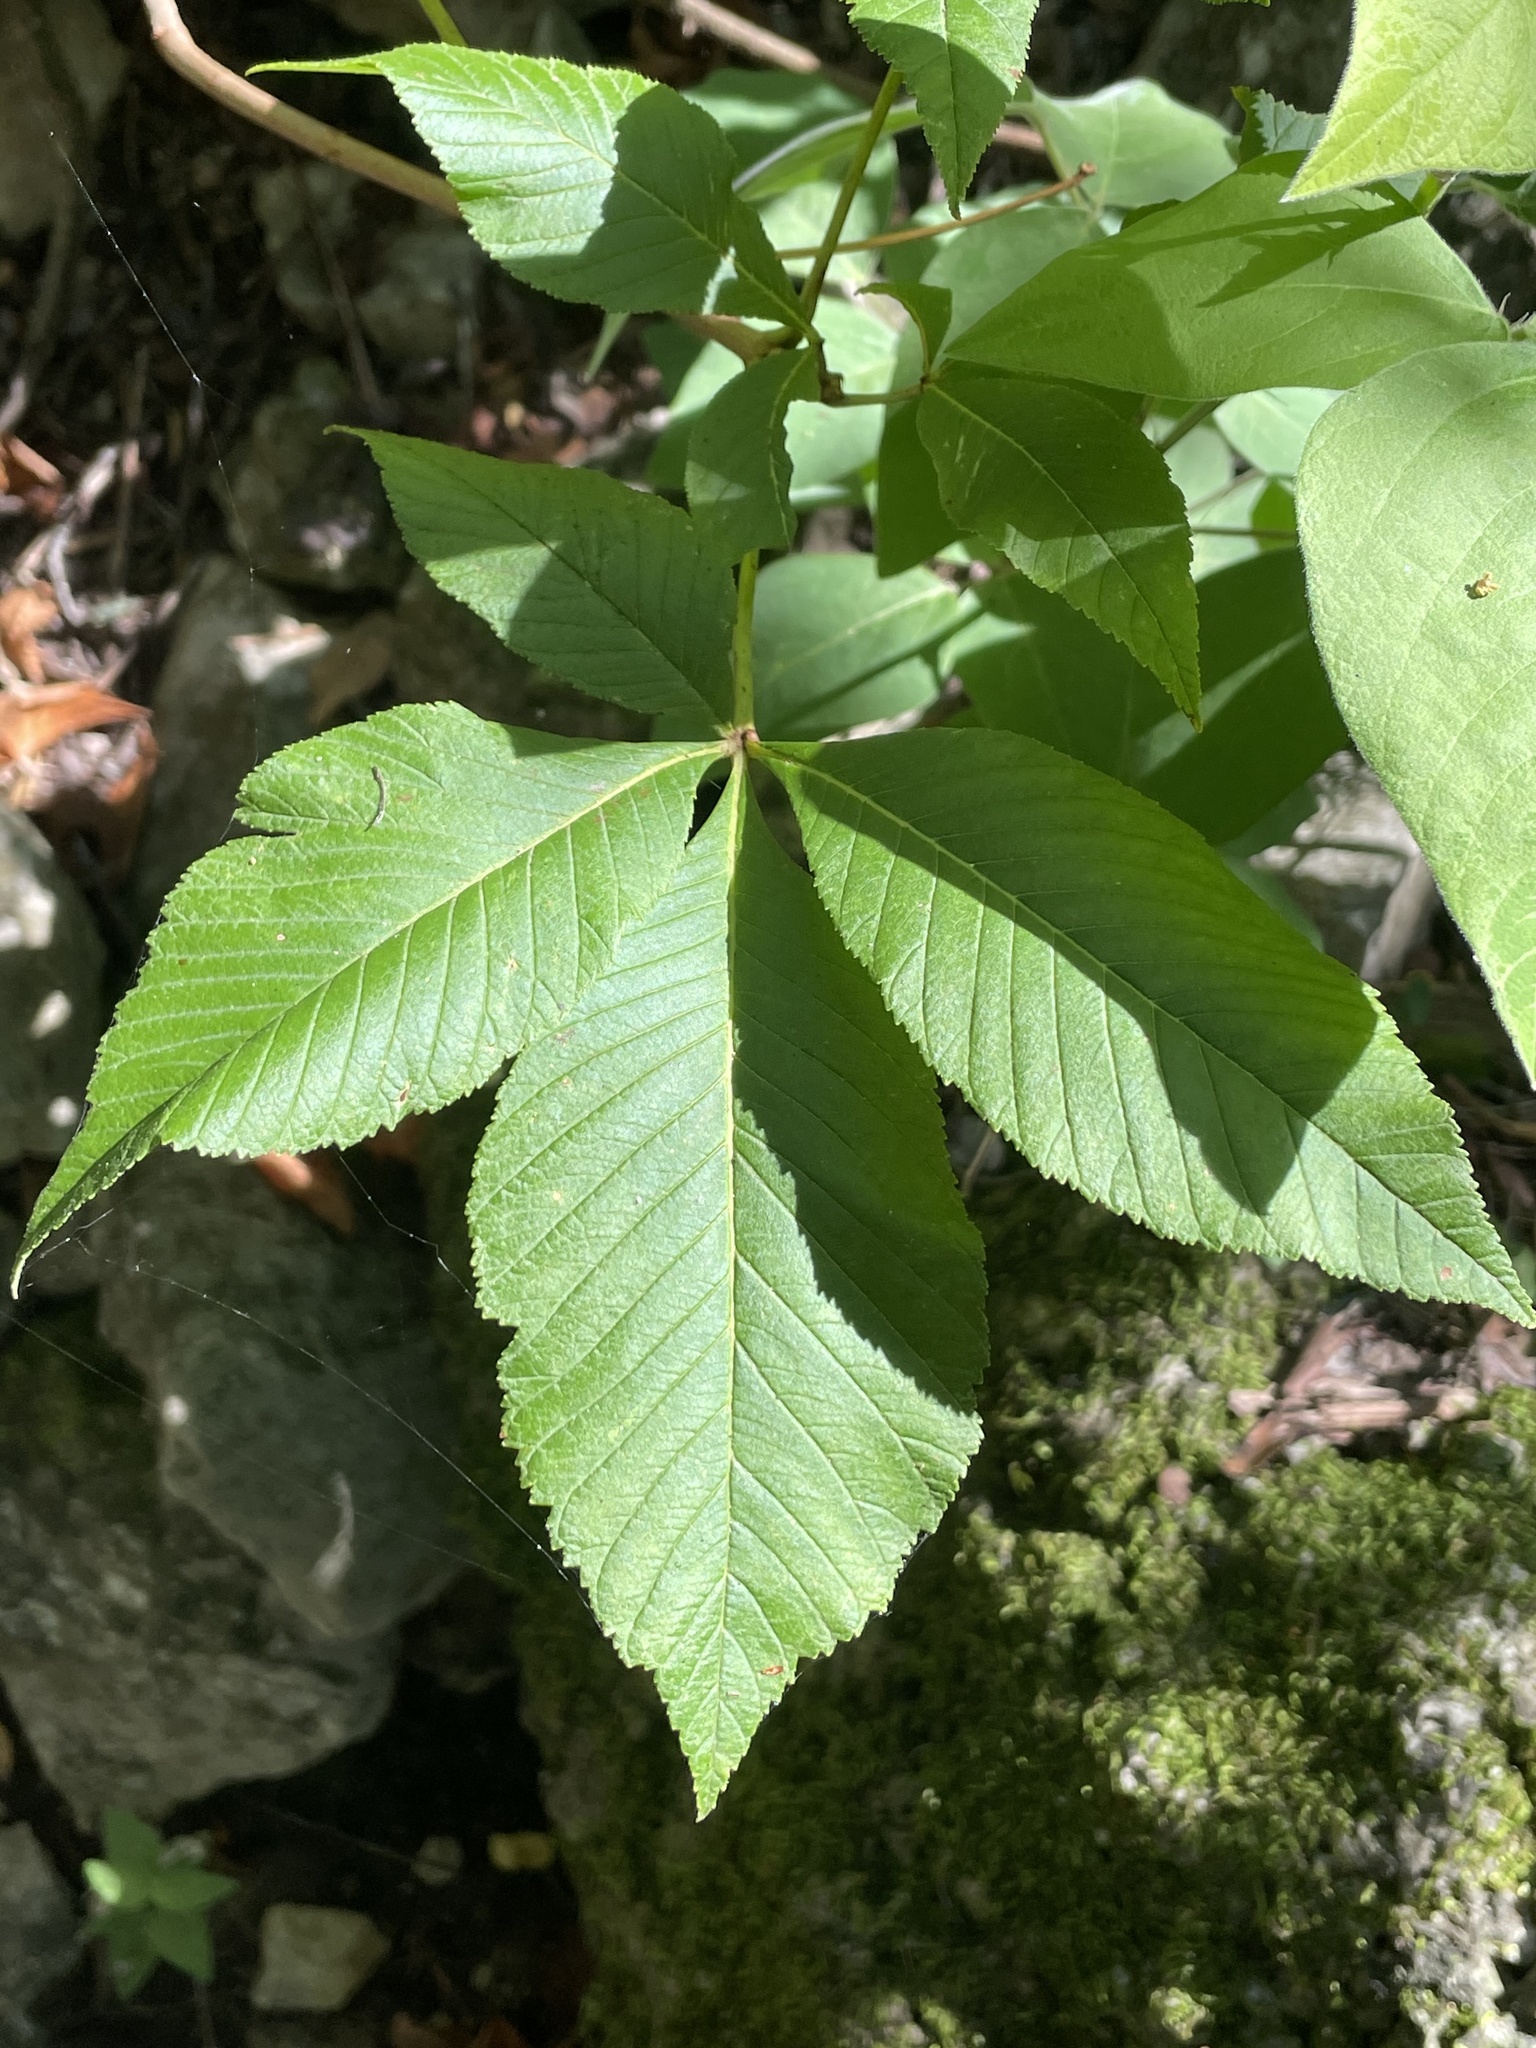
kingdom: Plantae
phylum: Tracheophyta
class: Magnoliopsida
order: Sapindales
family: Sapindaceae
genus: Aesculus
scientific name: Aesculus pavia
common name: Red buckeye
